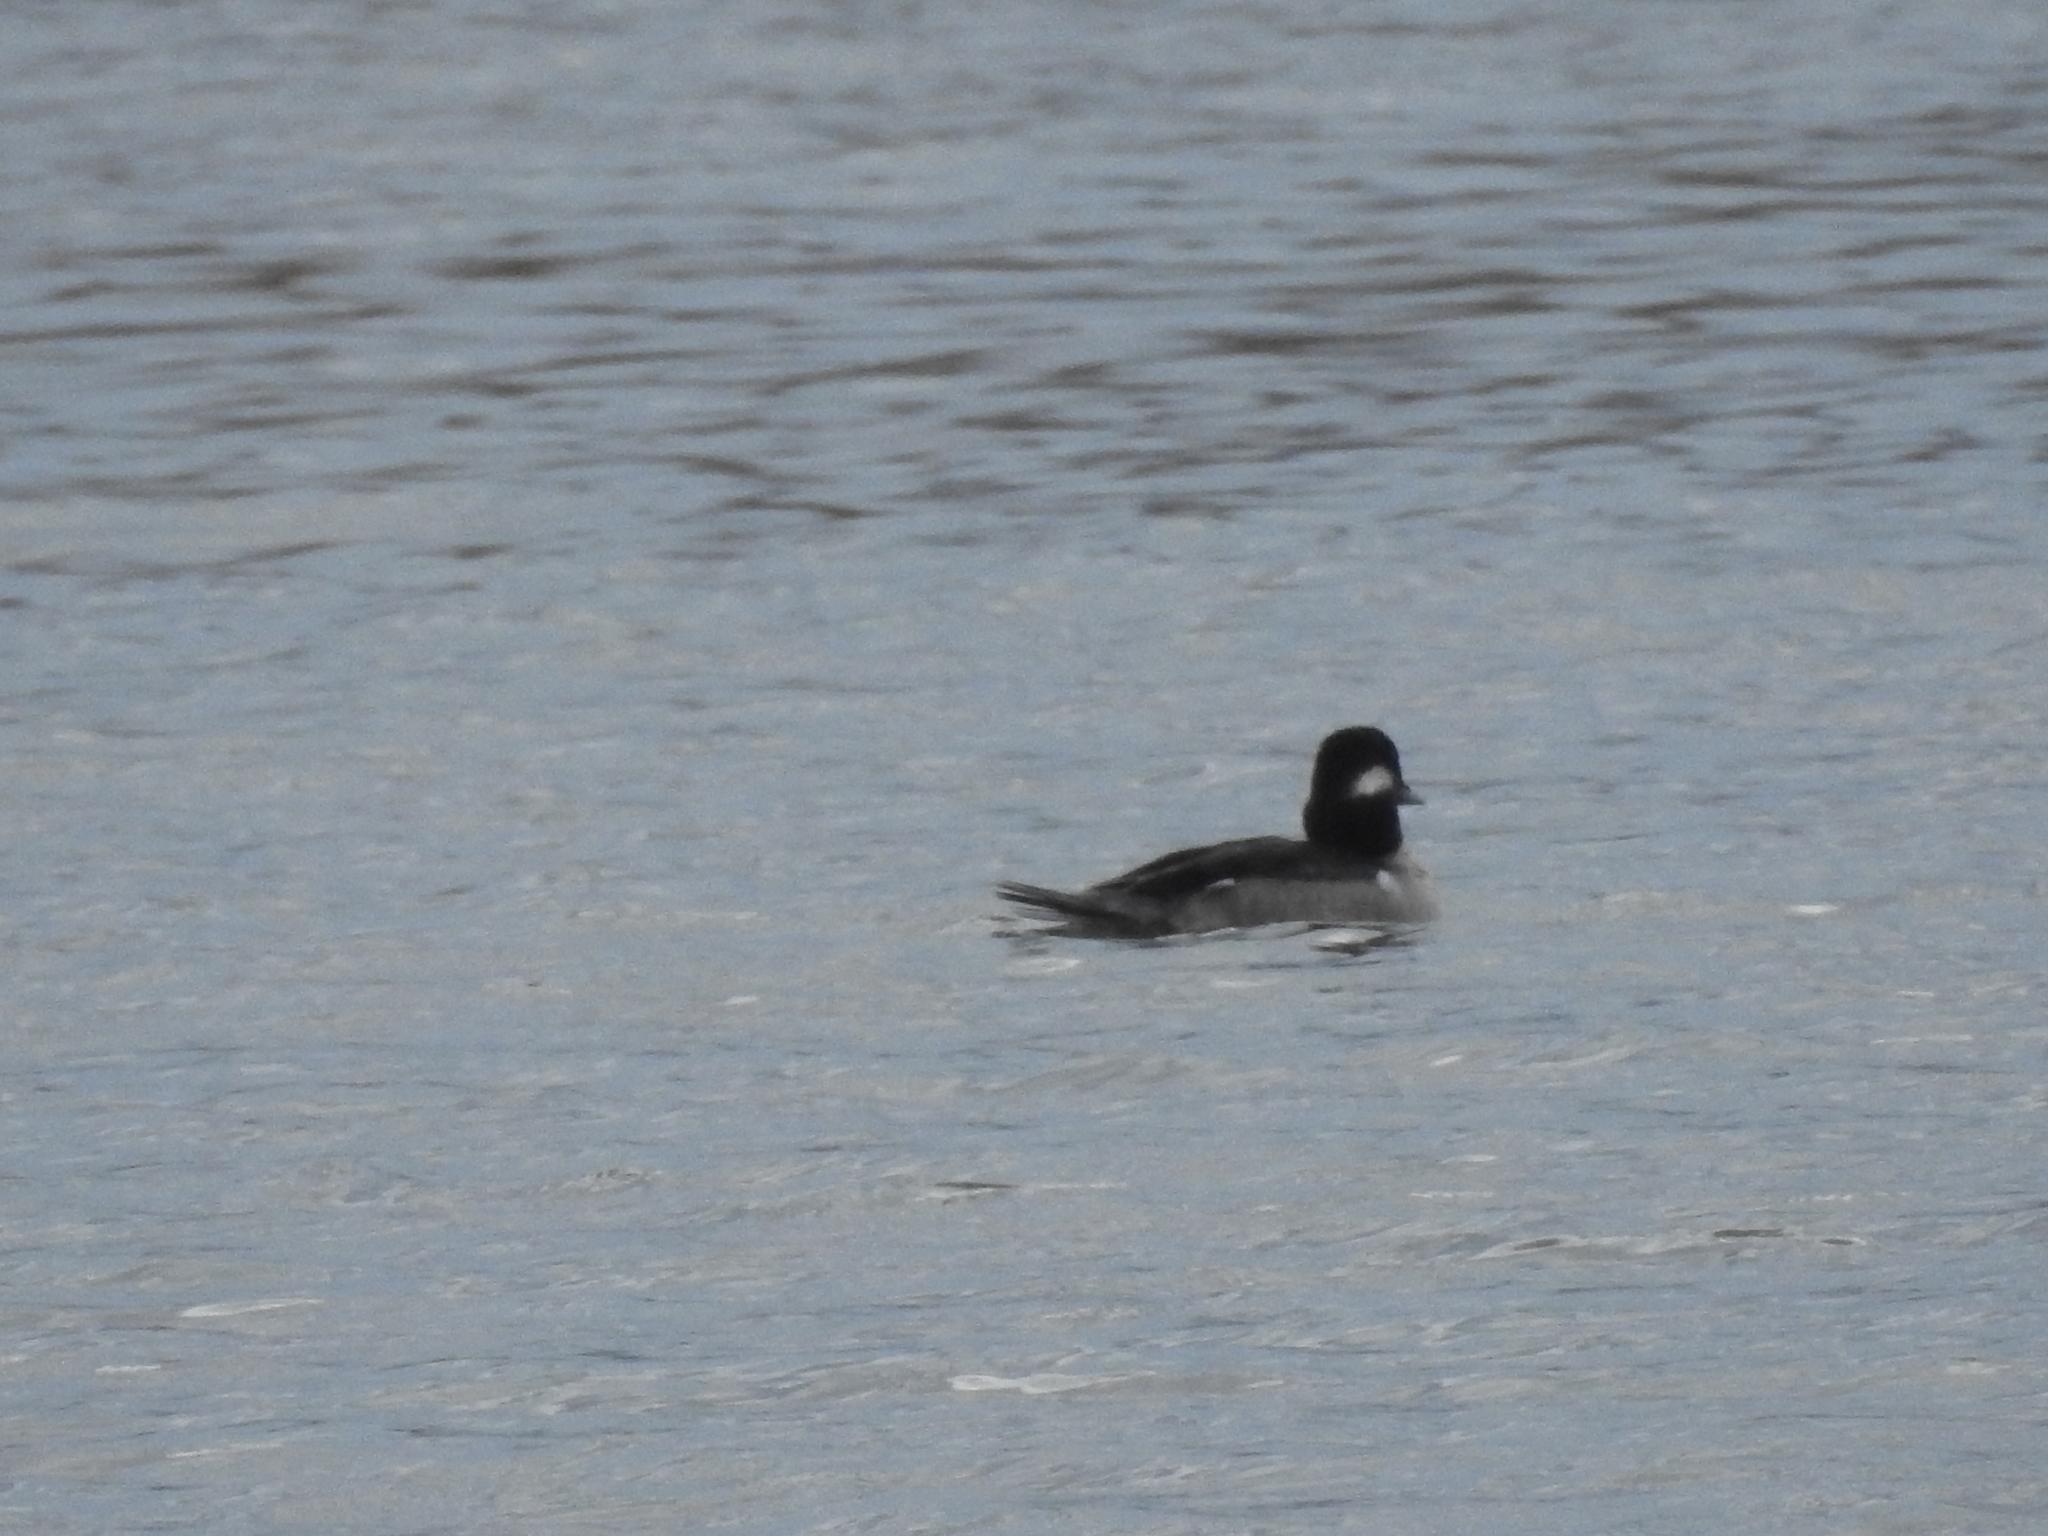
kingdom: Animalia
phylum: Chordata
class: Aves
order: Anseriformes
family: Anatidae
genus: Bucephala
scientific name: Bucephala albeola
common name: Bufflehead
